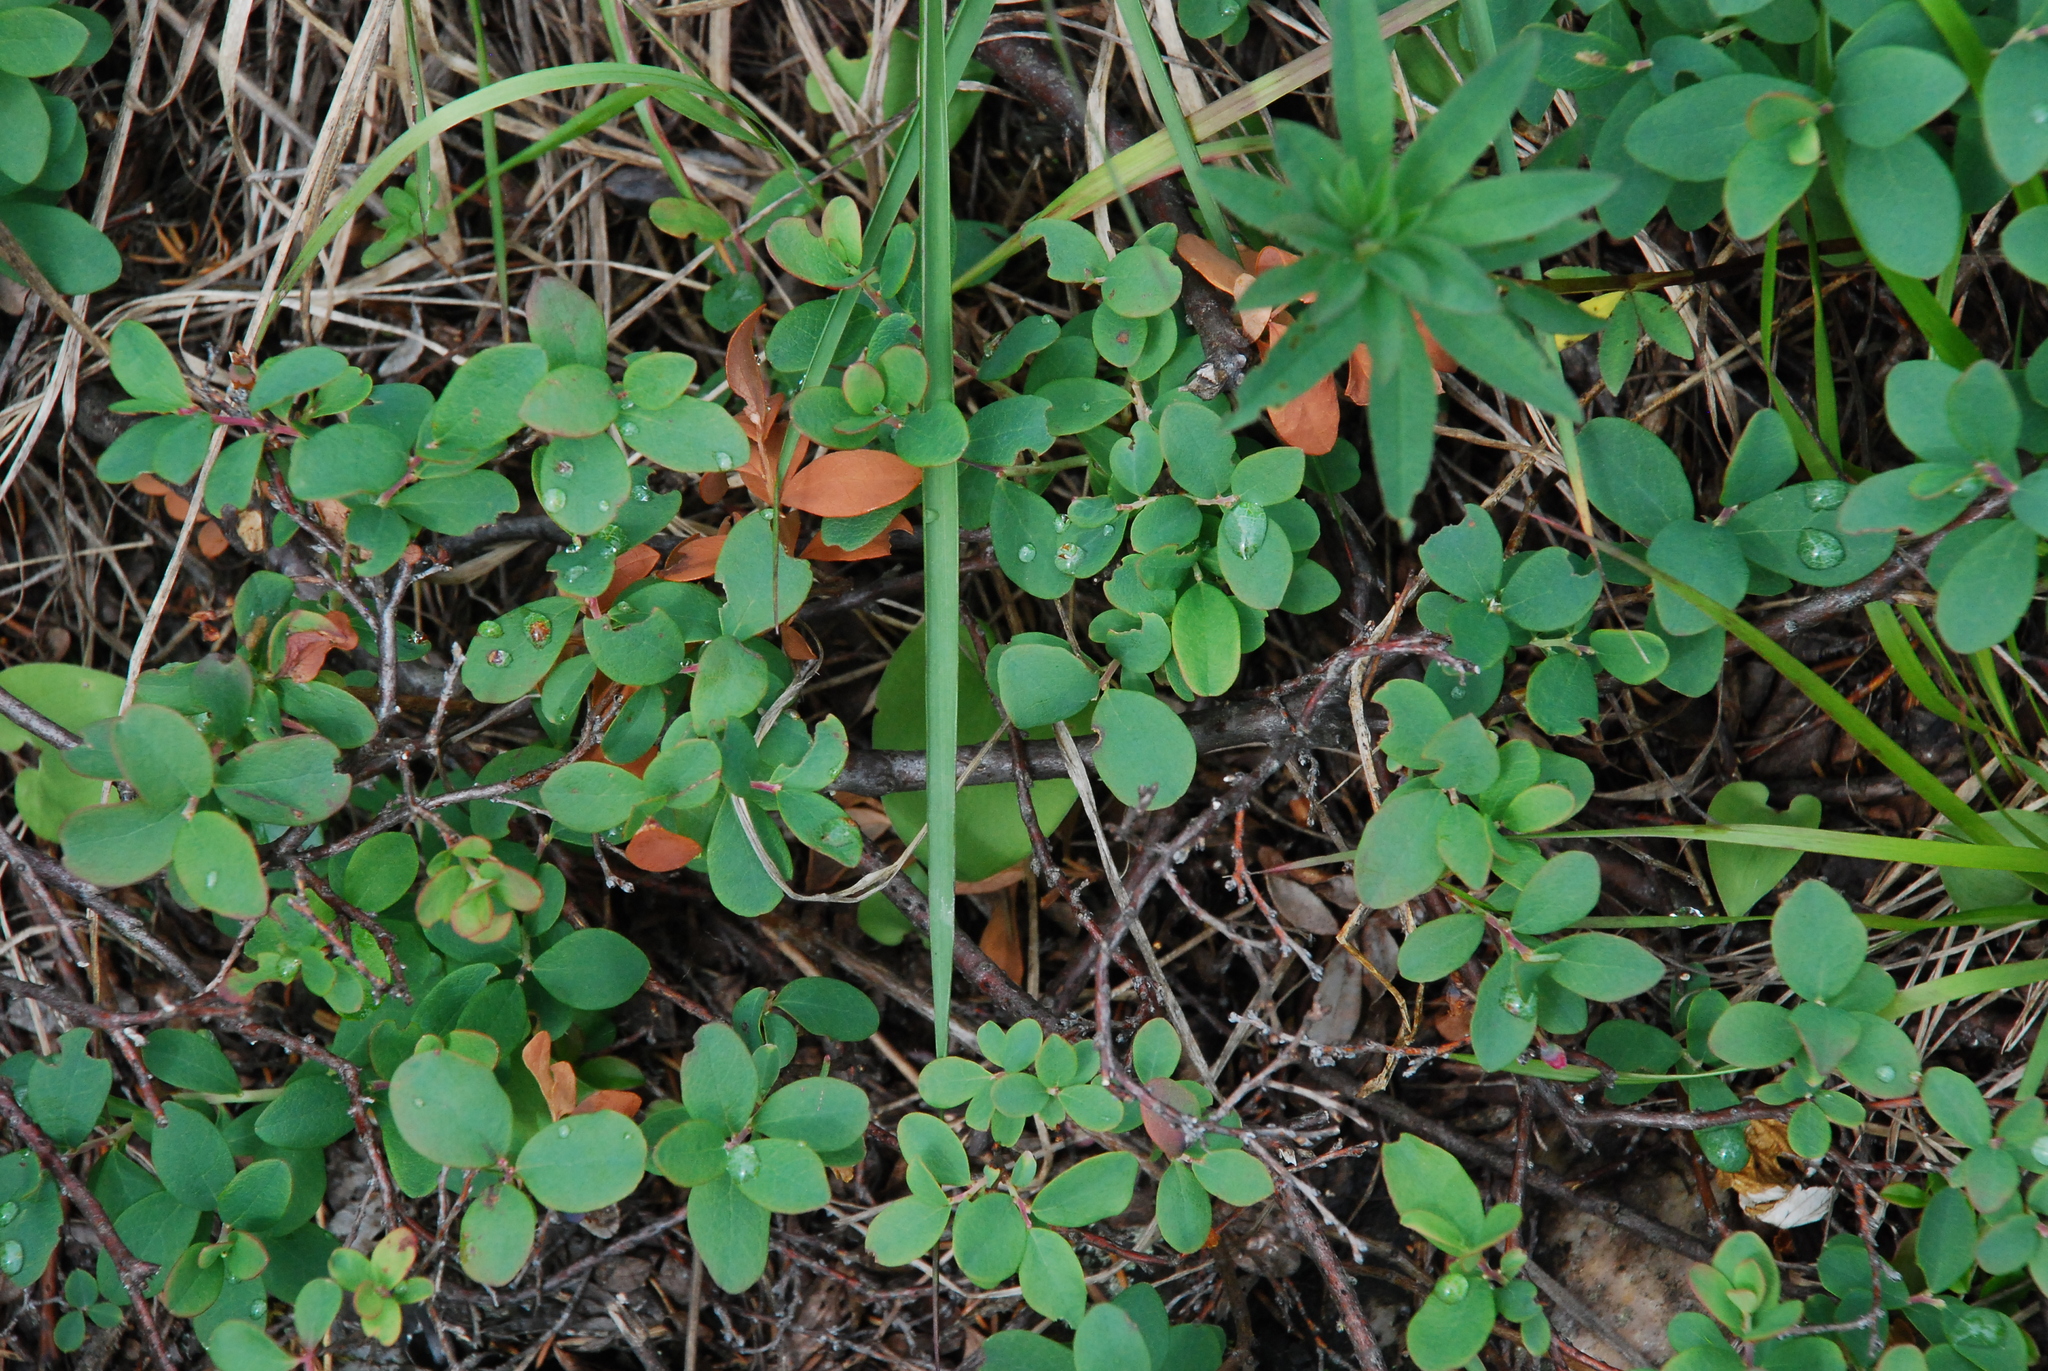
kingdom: Plantae
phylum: Tracheophyta
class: Magnoliopsida
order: Ericales
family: Ericaceae
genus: Vaccinium
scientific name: Vaccinium uliginosum
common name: Bog bilberry
